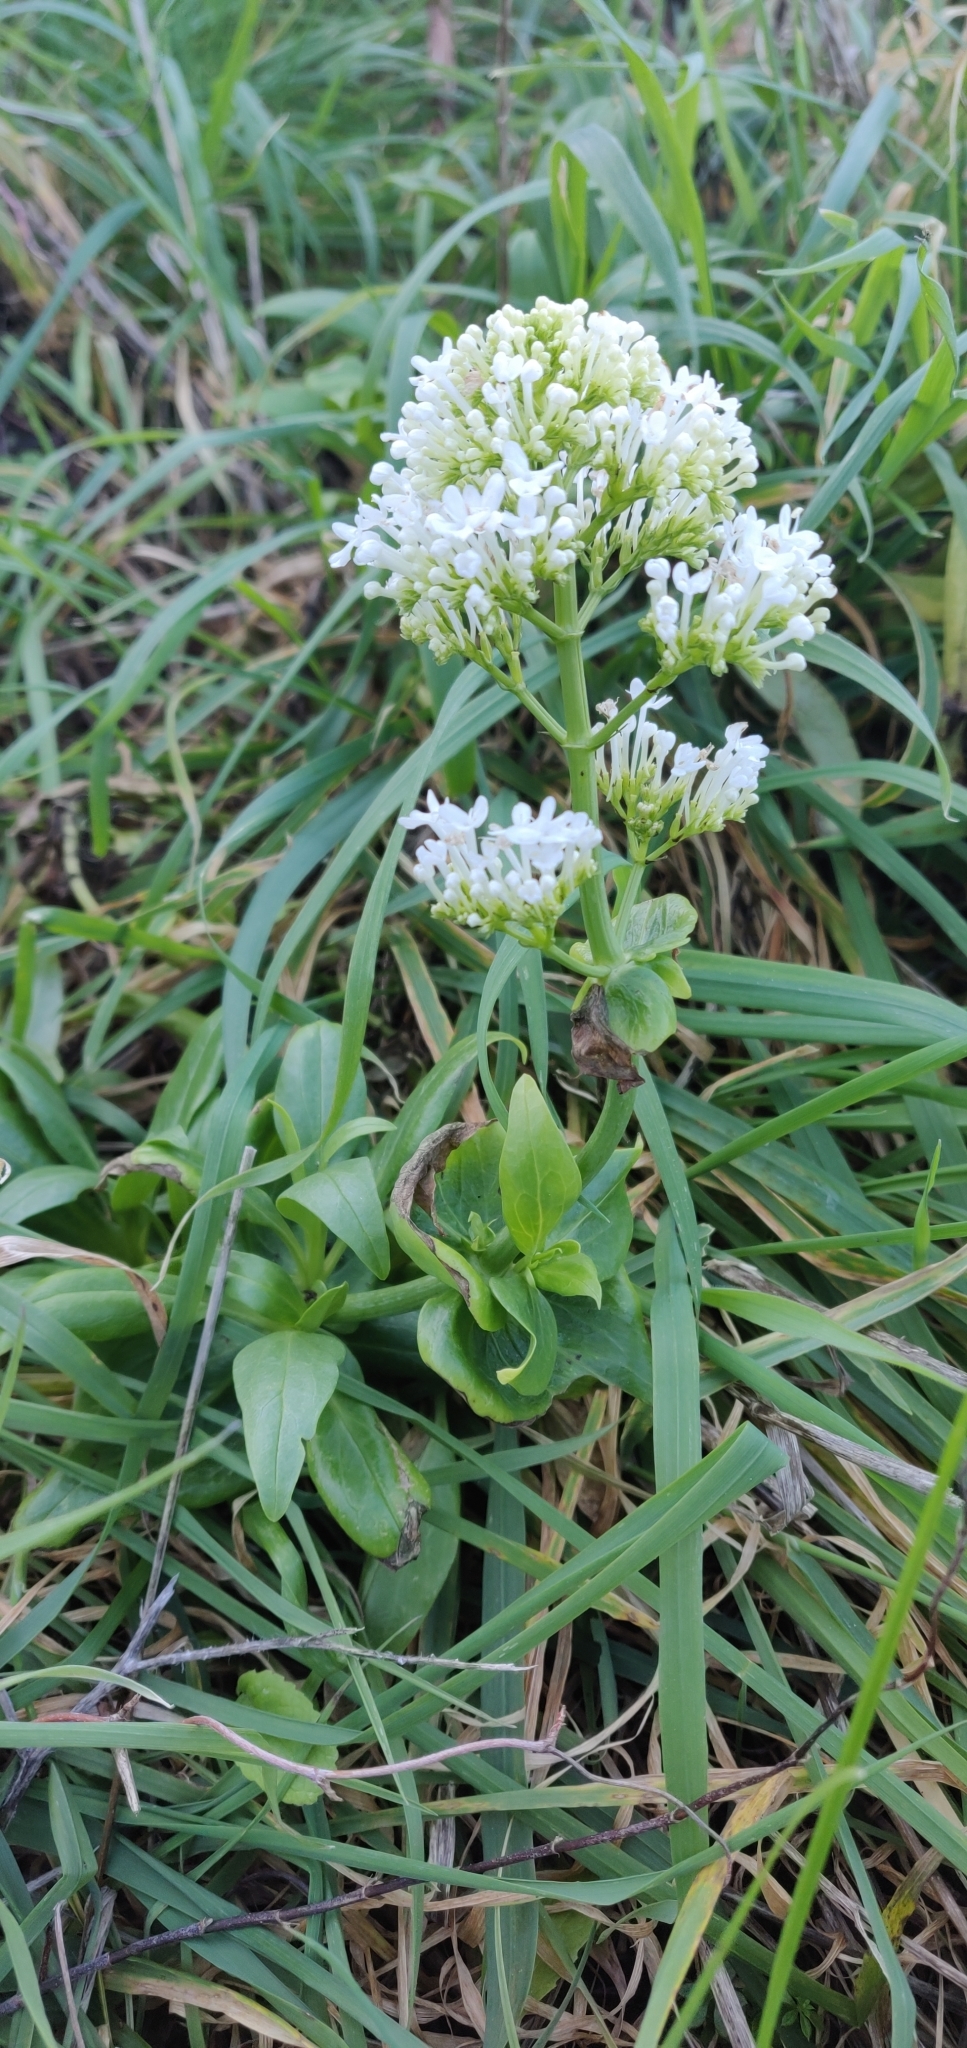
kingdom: Plantae
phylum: Tracheophyta
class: Magnoliopsida
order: Dipsacales
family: Caprifoliaceae
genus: Centranthus
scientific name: Centranthus ruber
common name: Red valerian
